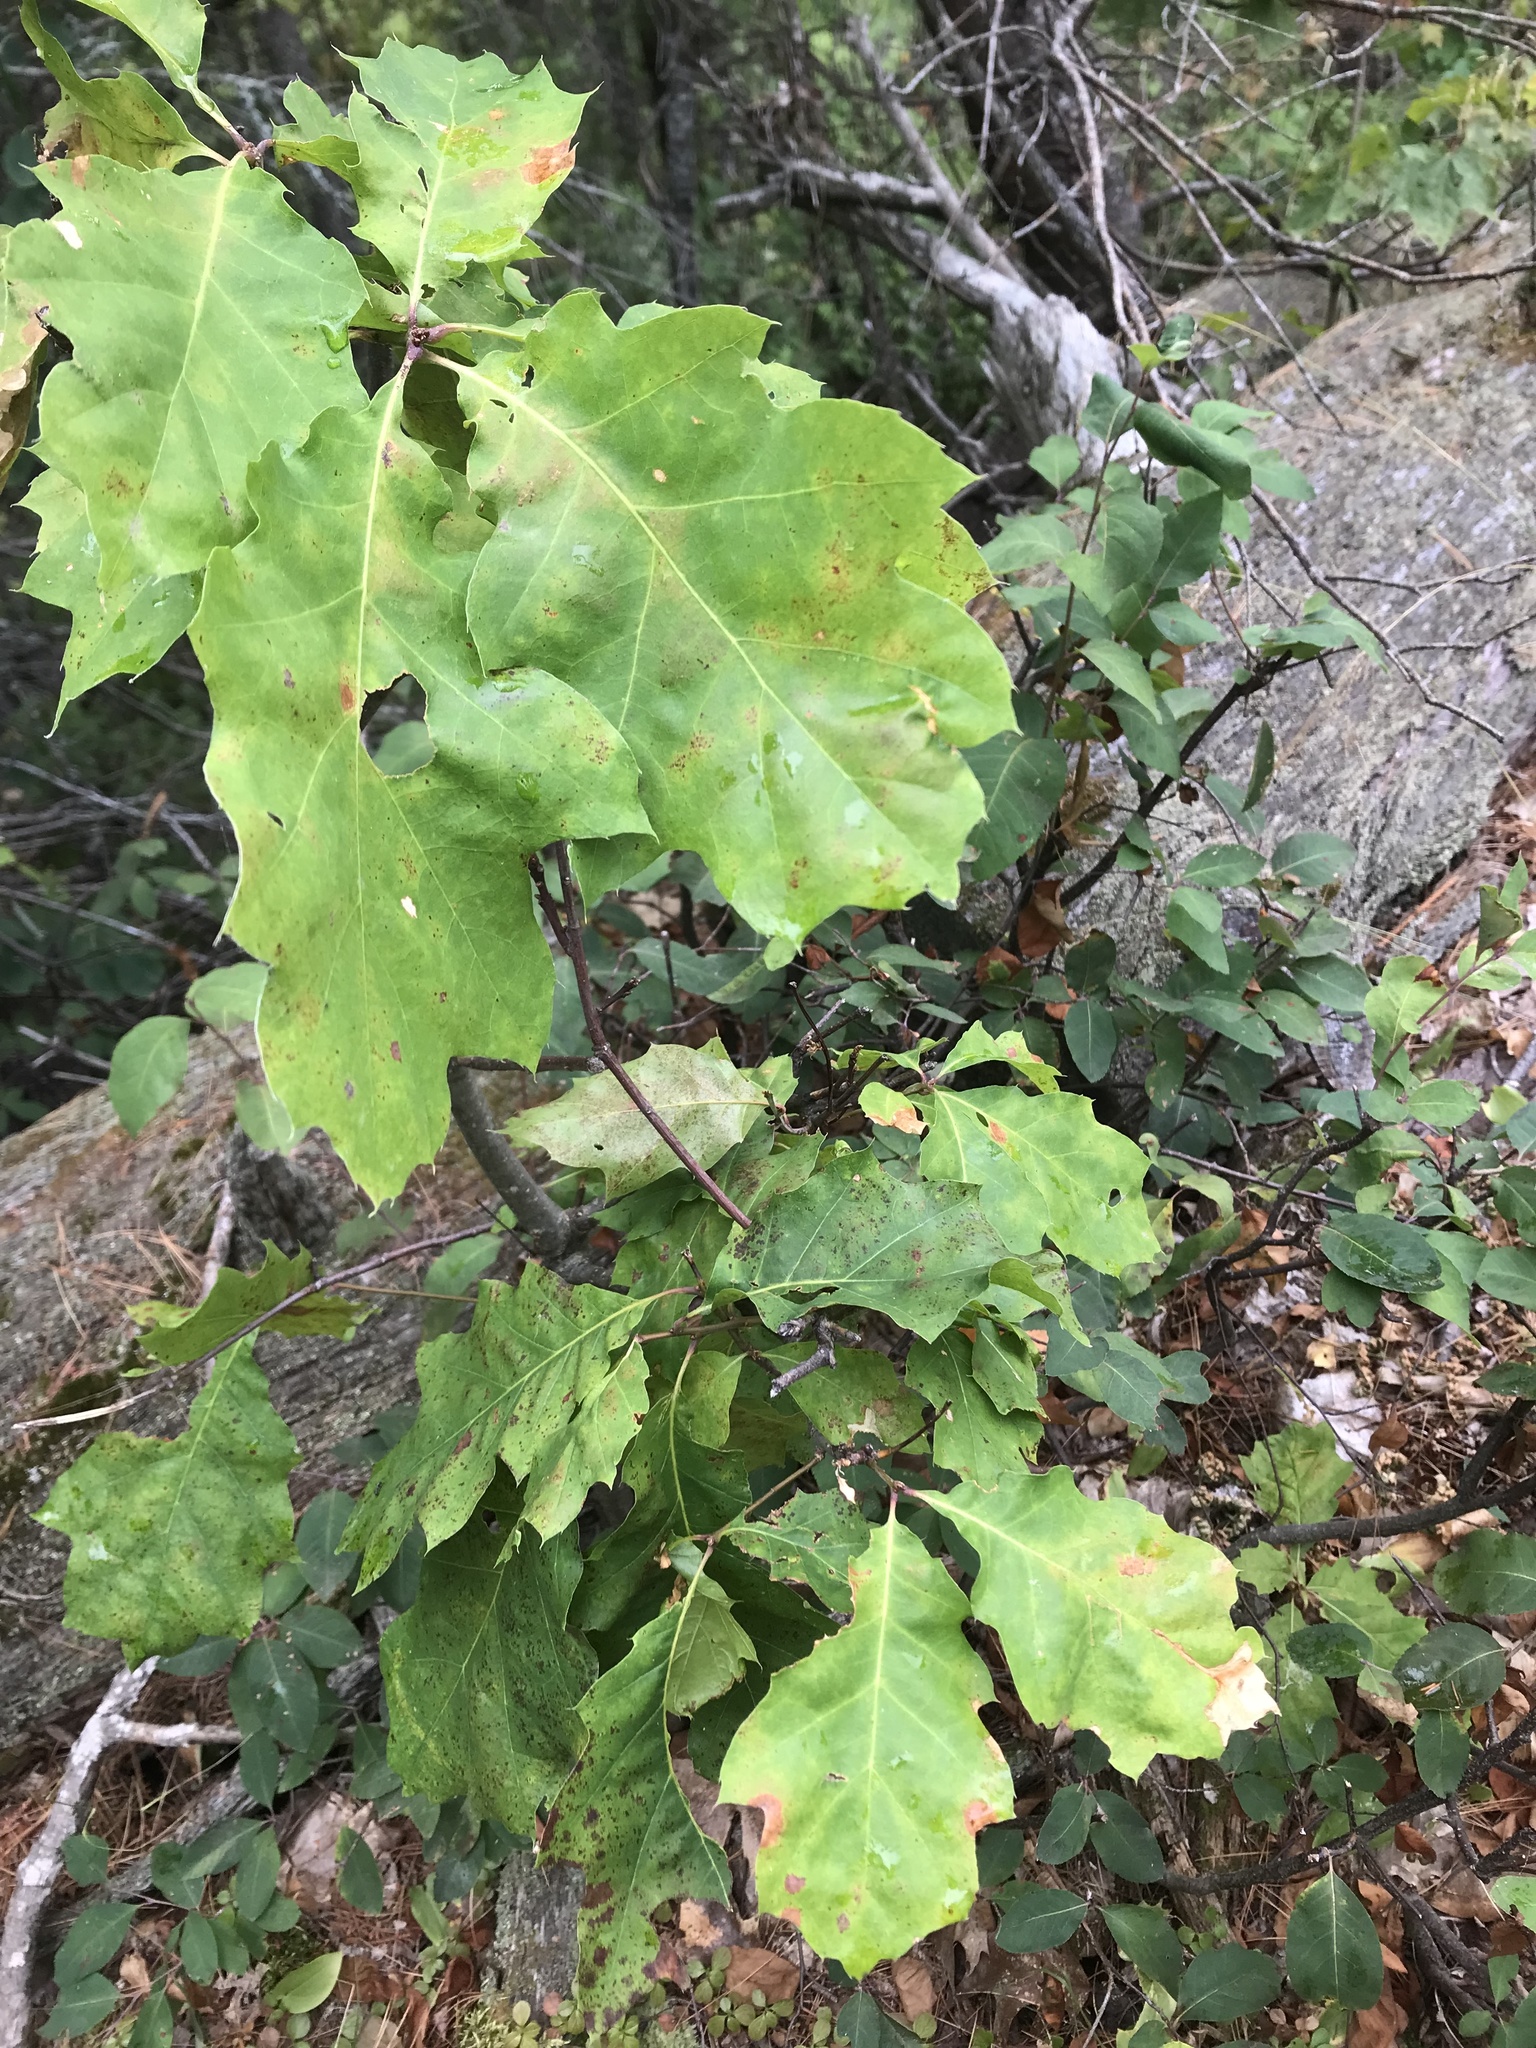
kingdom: Plantae
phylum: Tracheophyta
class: Magnoliopsida
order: Fagales
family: Fagaceae
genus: Quercus
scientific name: Quercus rubra
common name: Red oak
